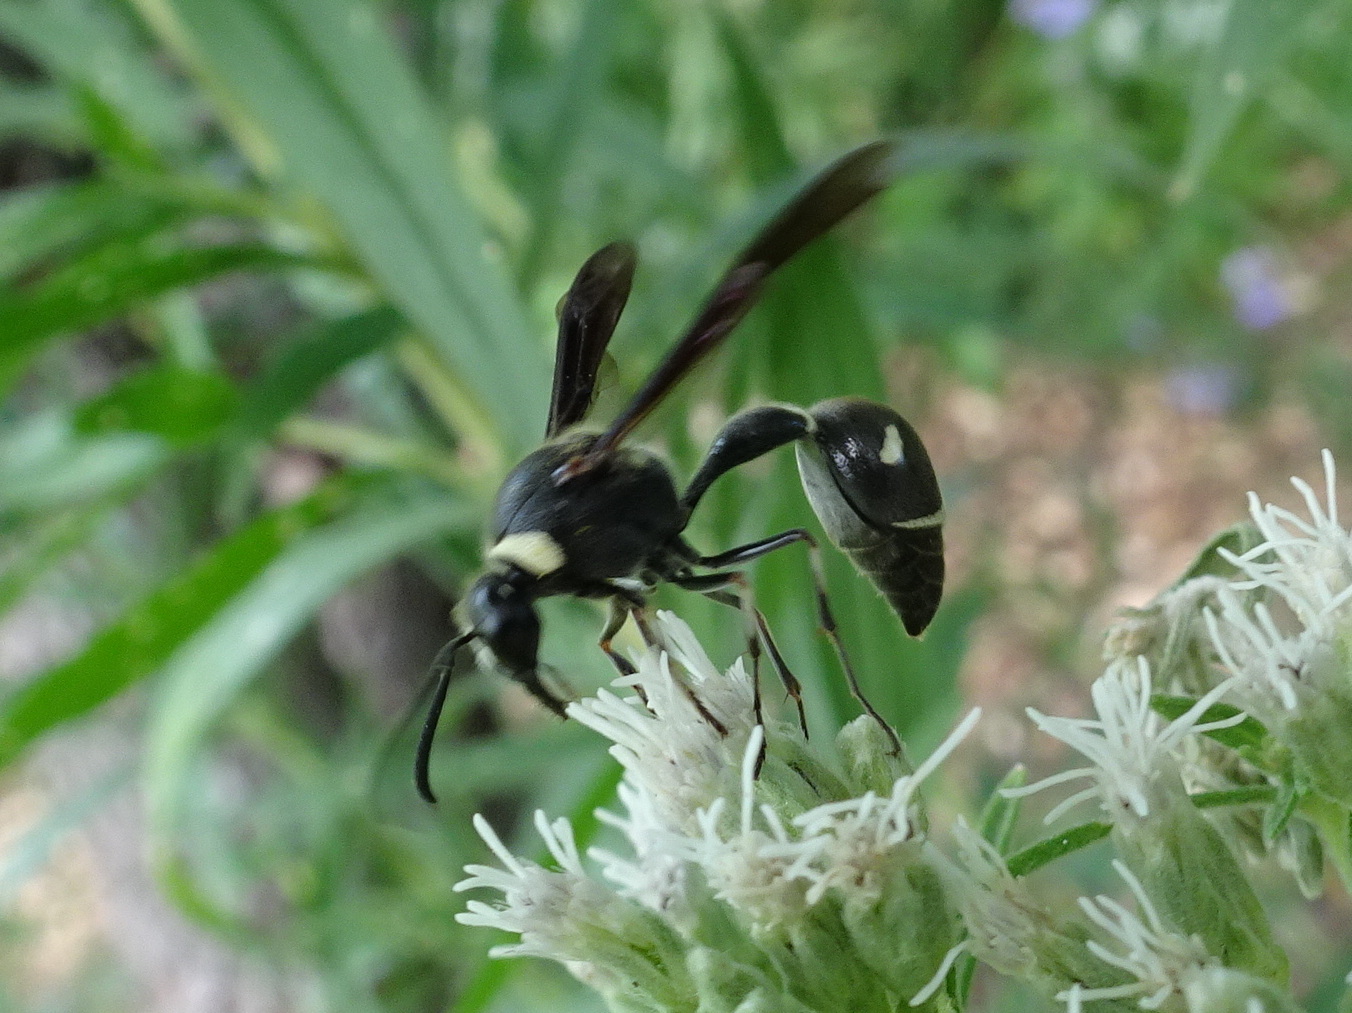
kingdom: Animalia
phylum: Arthropoda
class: Insecta
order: Hymenoptera
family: Vespidae
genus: Eumenes
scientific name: Eumenes fraternus
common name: Fraternal potter wasp
